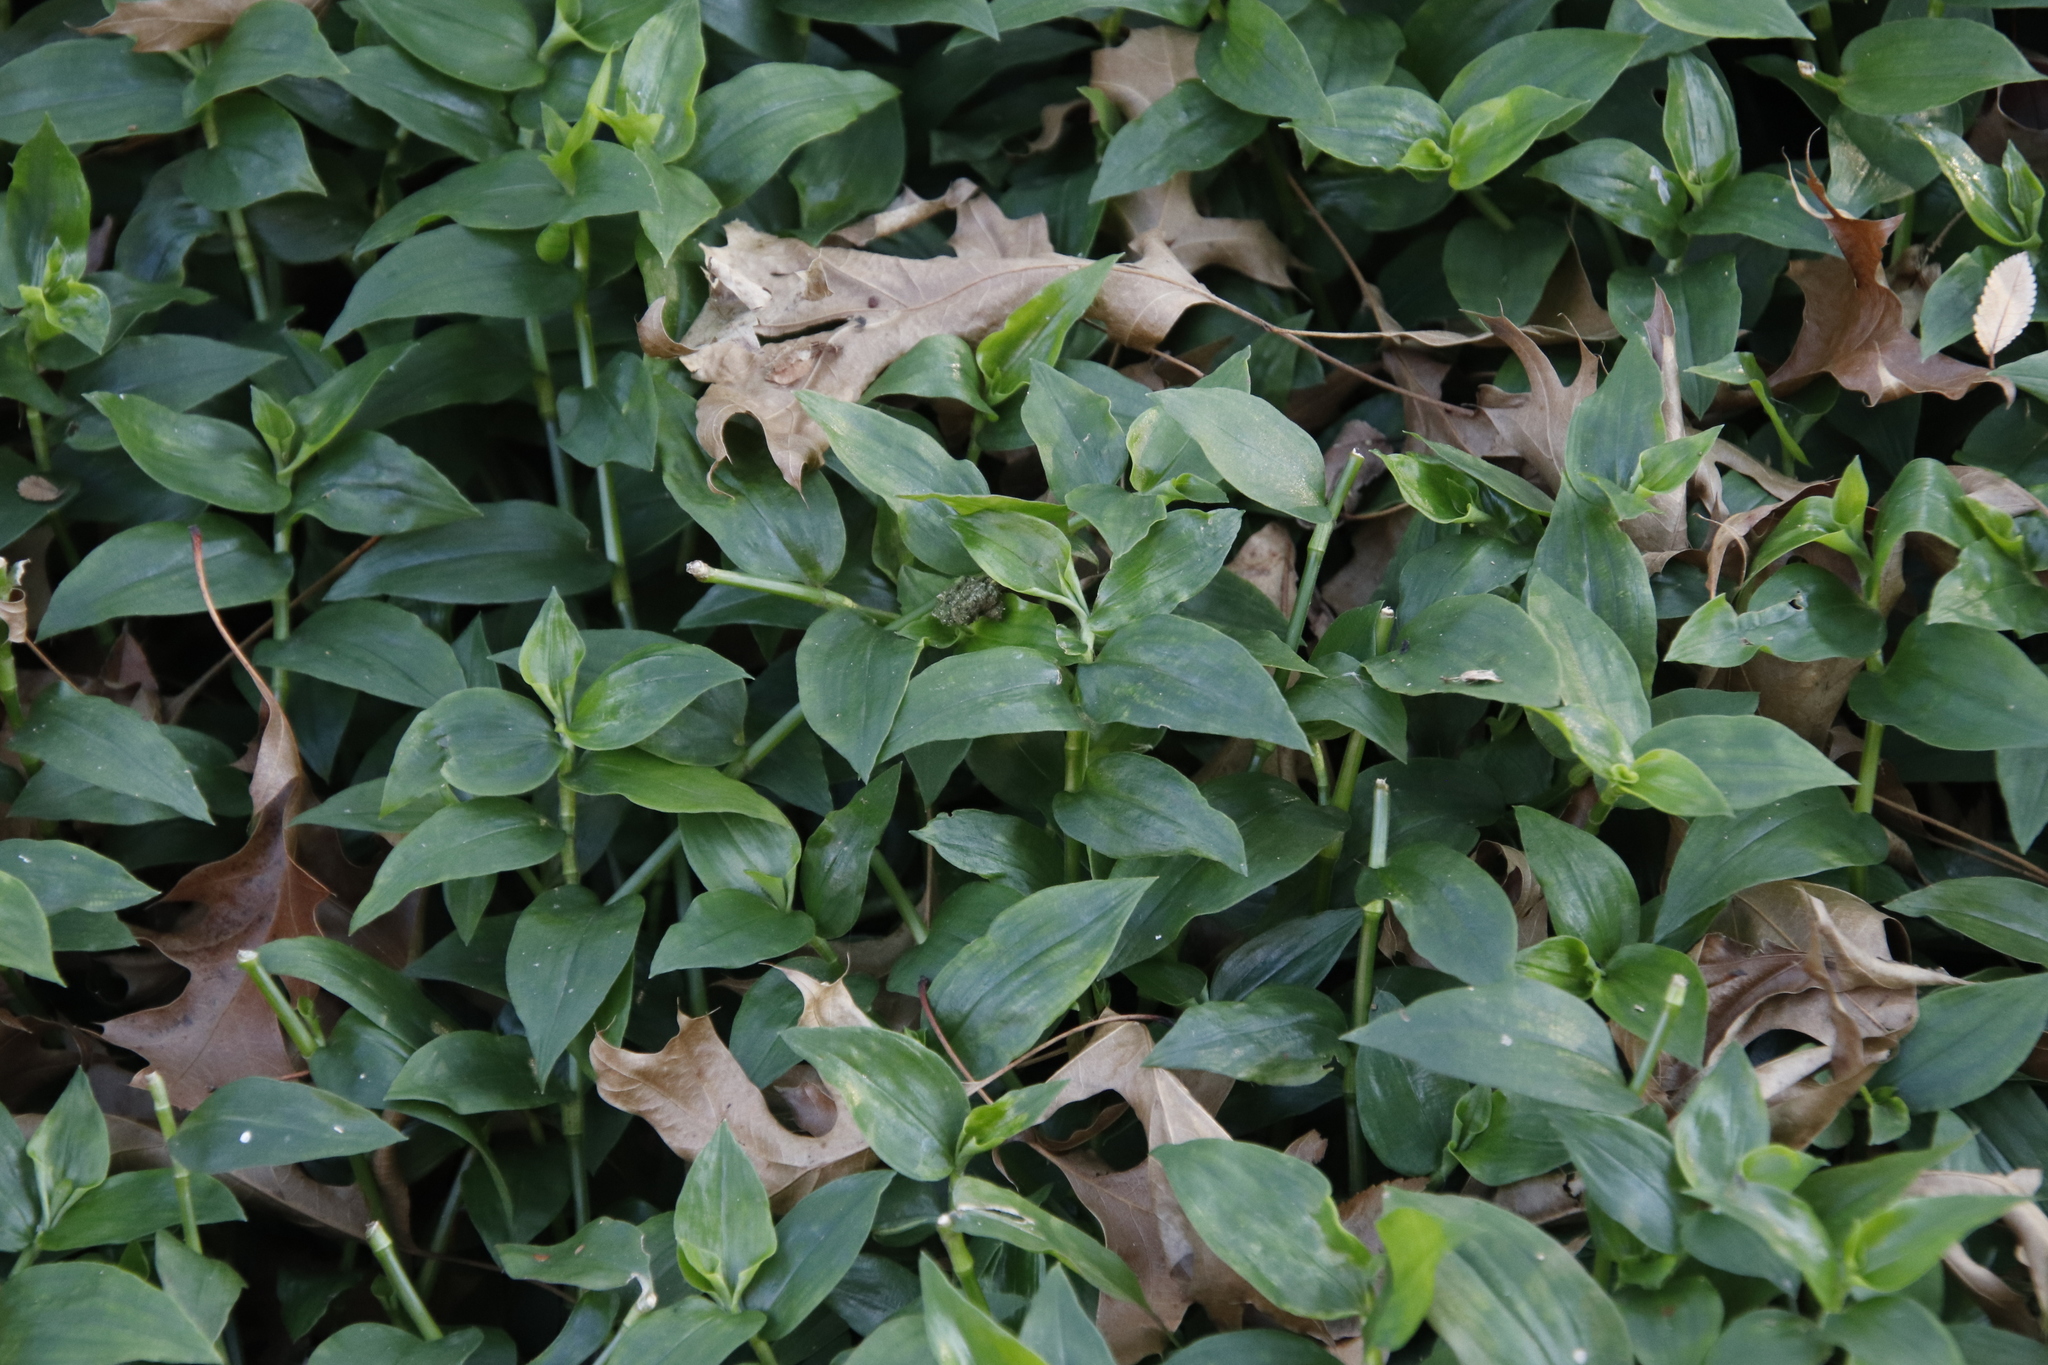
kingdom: Plantae
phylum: Tracheophyta
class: Liliopsida
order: Commelinales
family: Commelinaceae
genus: Tradescantia
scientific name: Tradescantia fluminensis
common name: Wandering-jew
